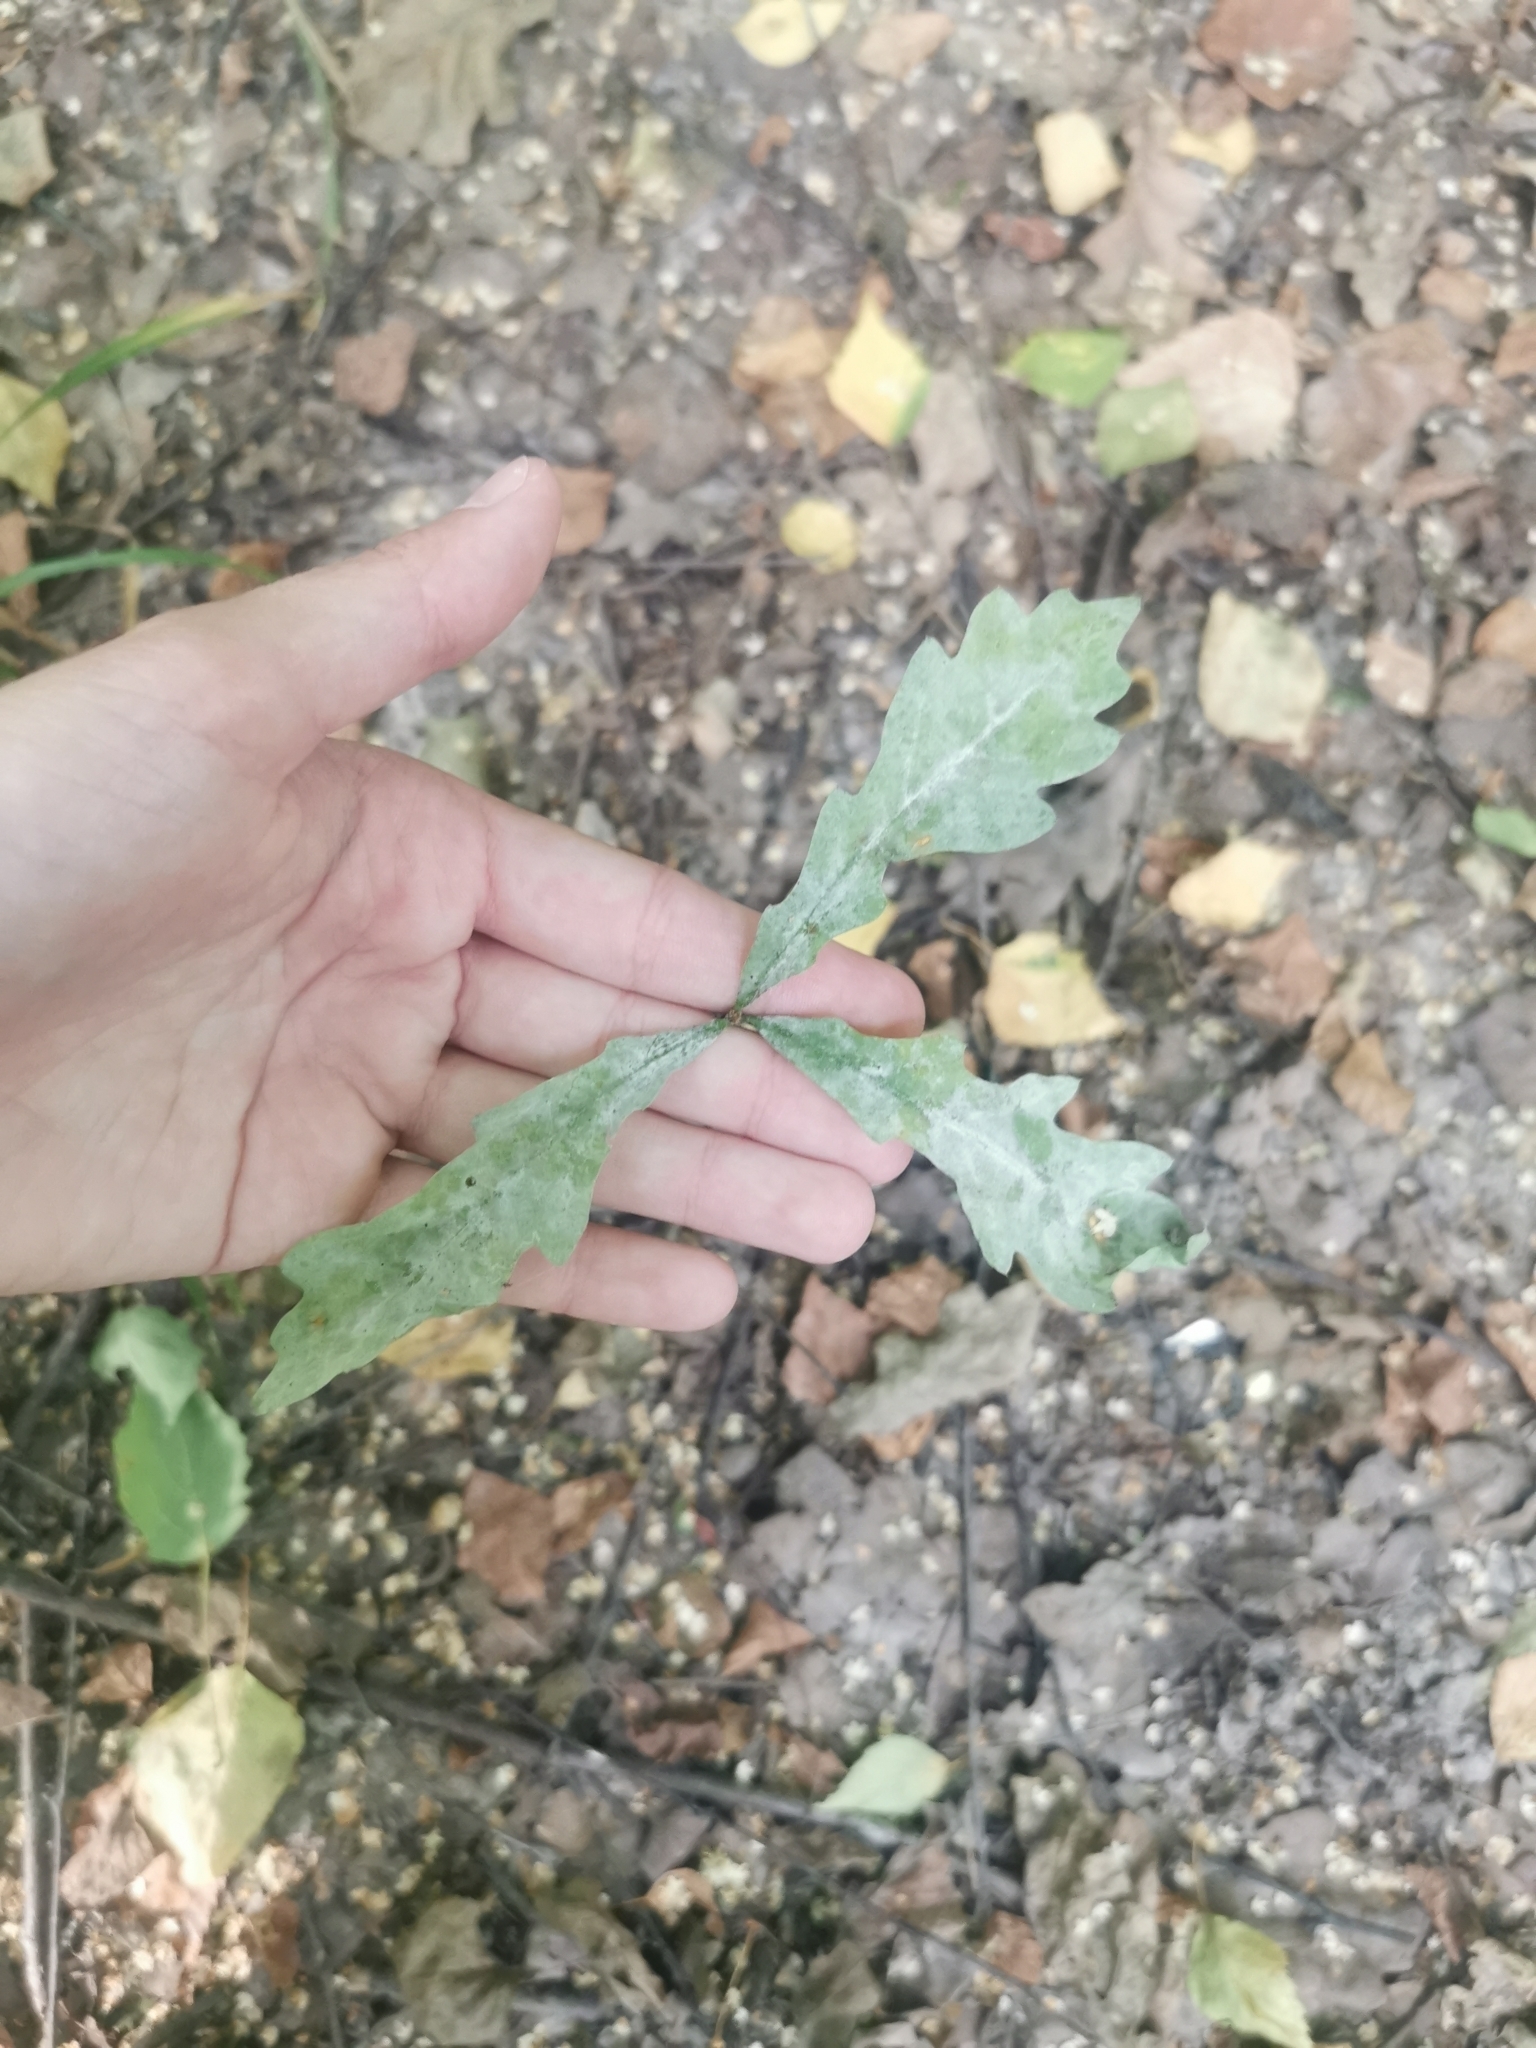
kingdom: Fungi
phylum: Ascomycota
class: Leotiomycetes
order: Helotiales
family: Erysiphaceae
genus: Erysiphe
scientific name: Erysiphe alphitoides
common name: Oak mildew
